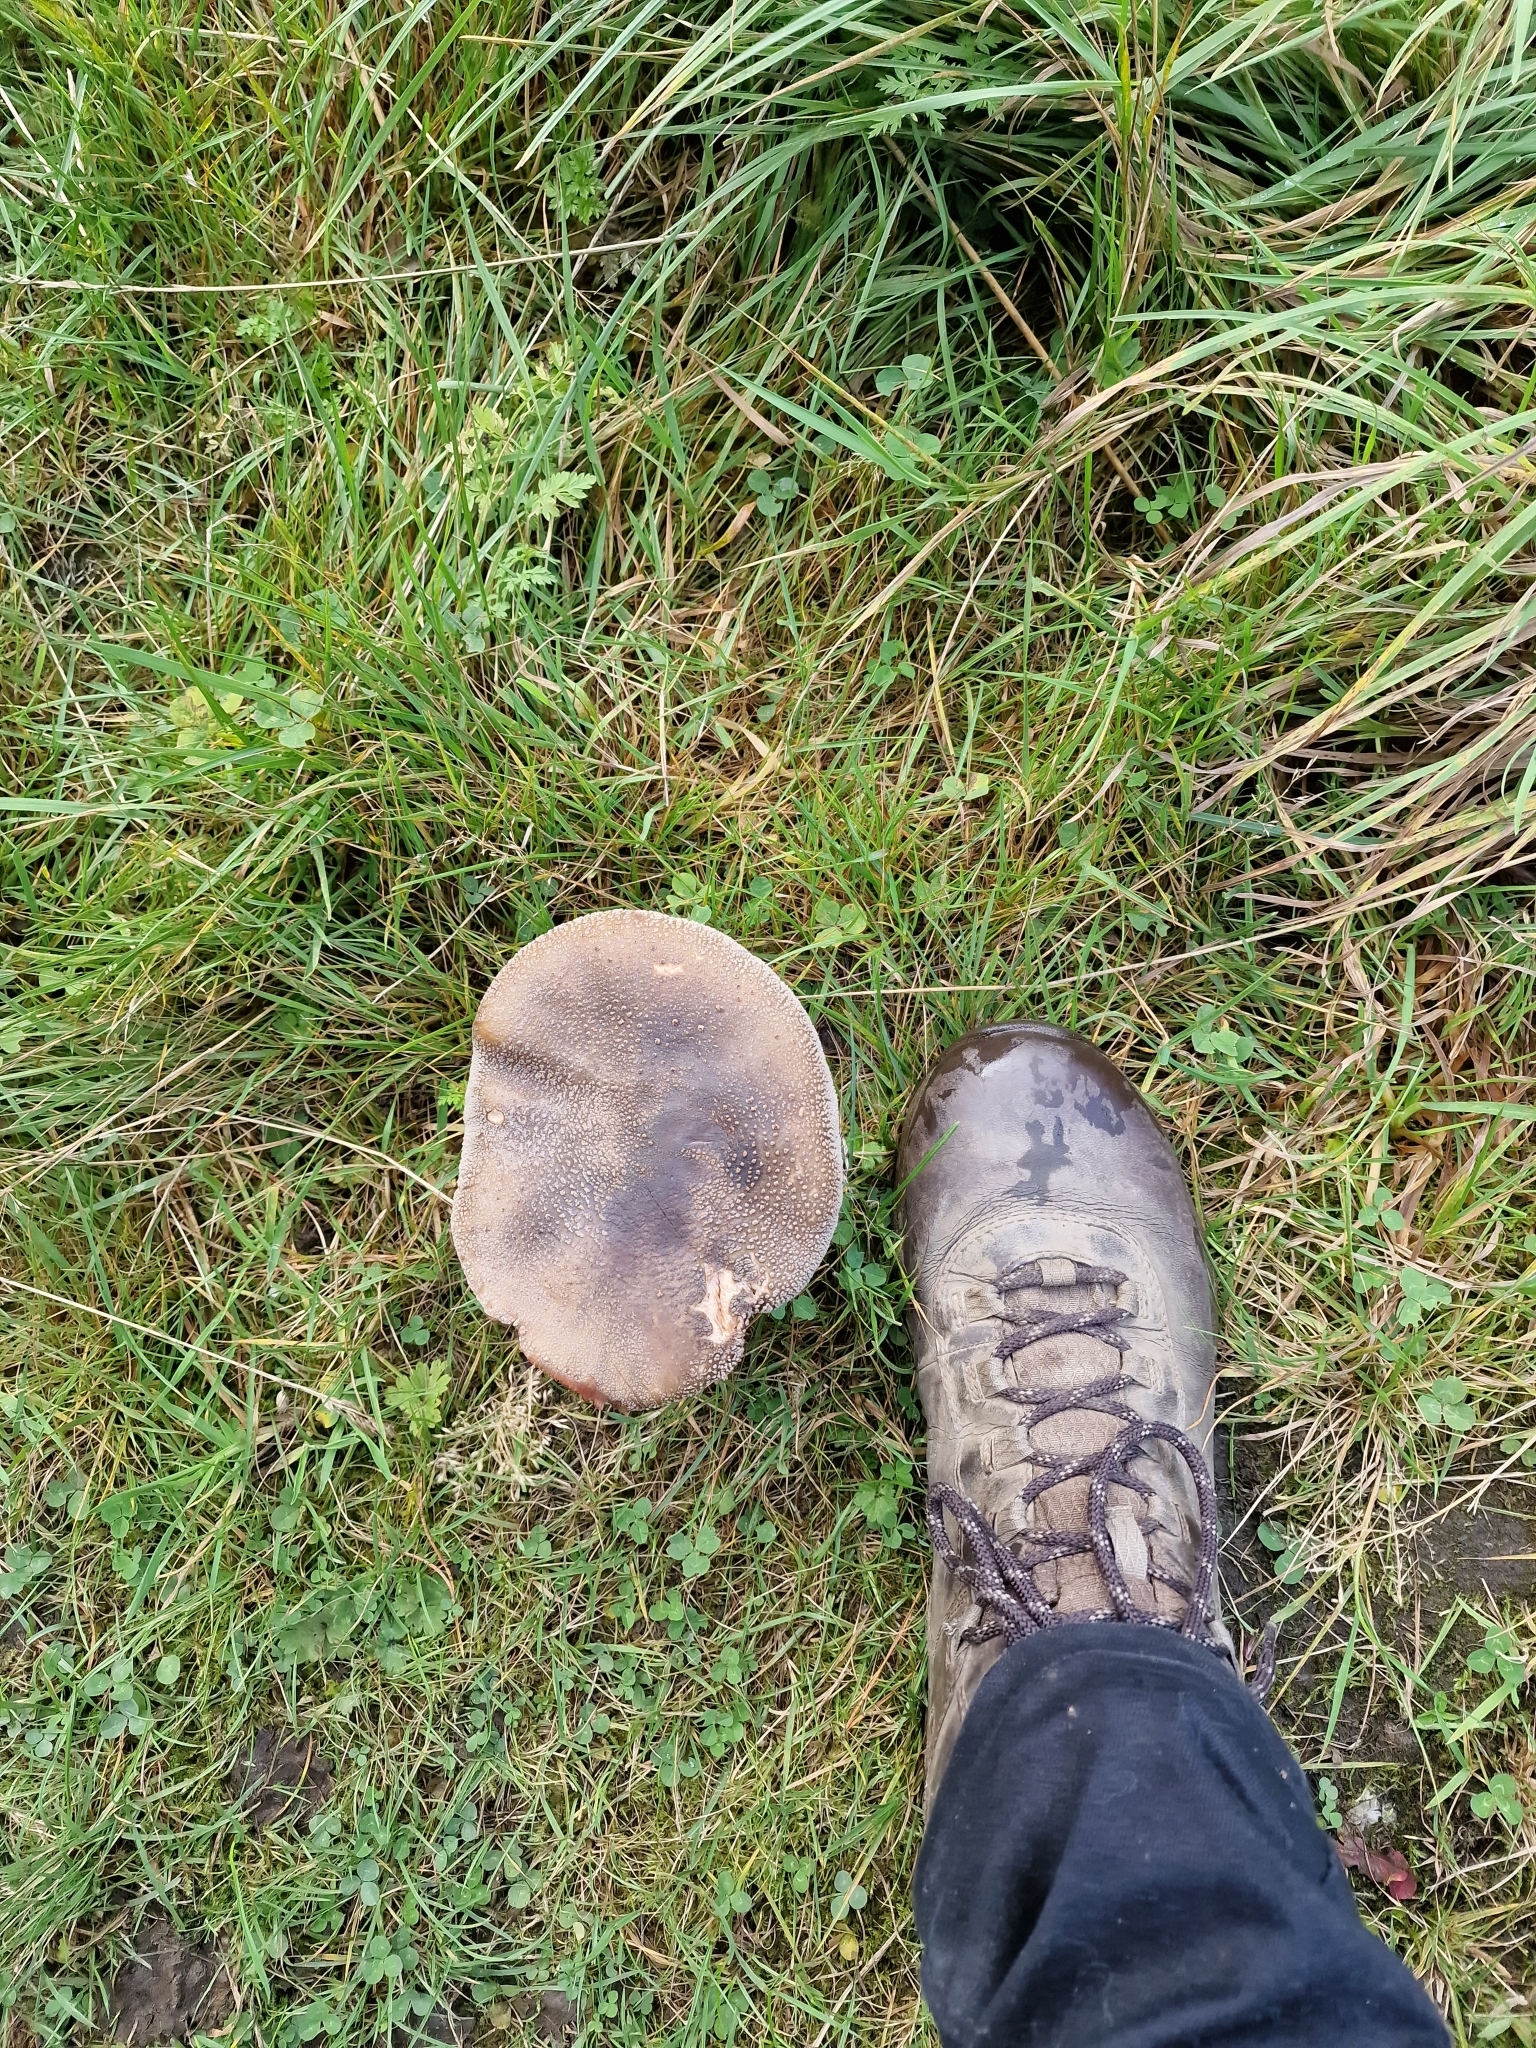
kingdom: Fungi
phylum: Basidiomycota
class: Agaricomycetes
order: Agaricales
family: Amanitaceae
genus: Amanita
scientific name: Amanita rubescens
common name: Blusher
